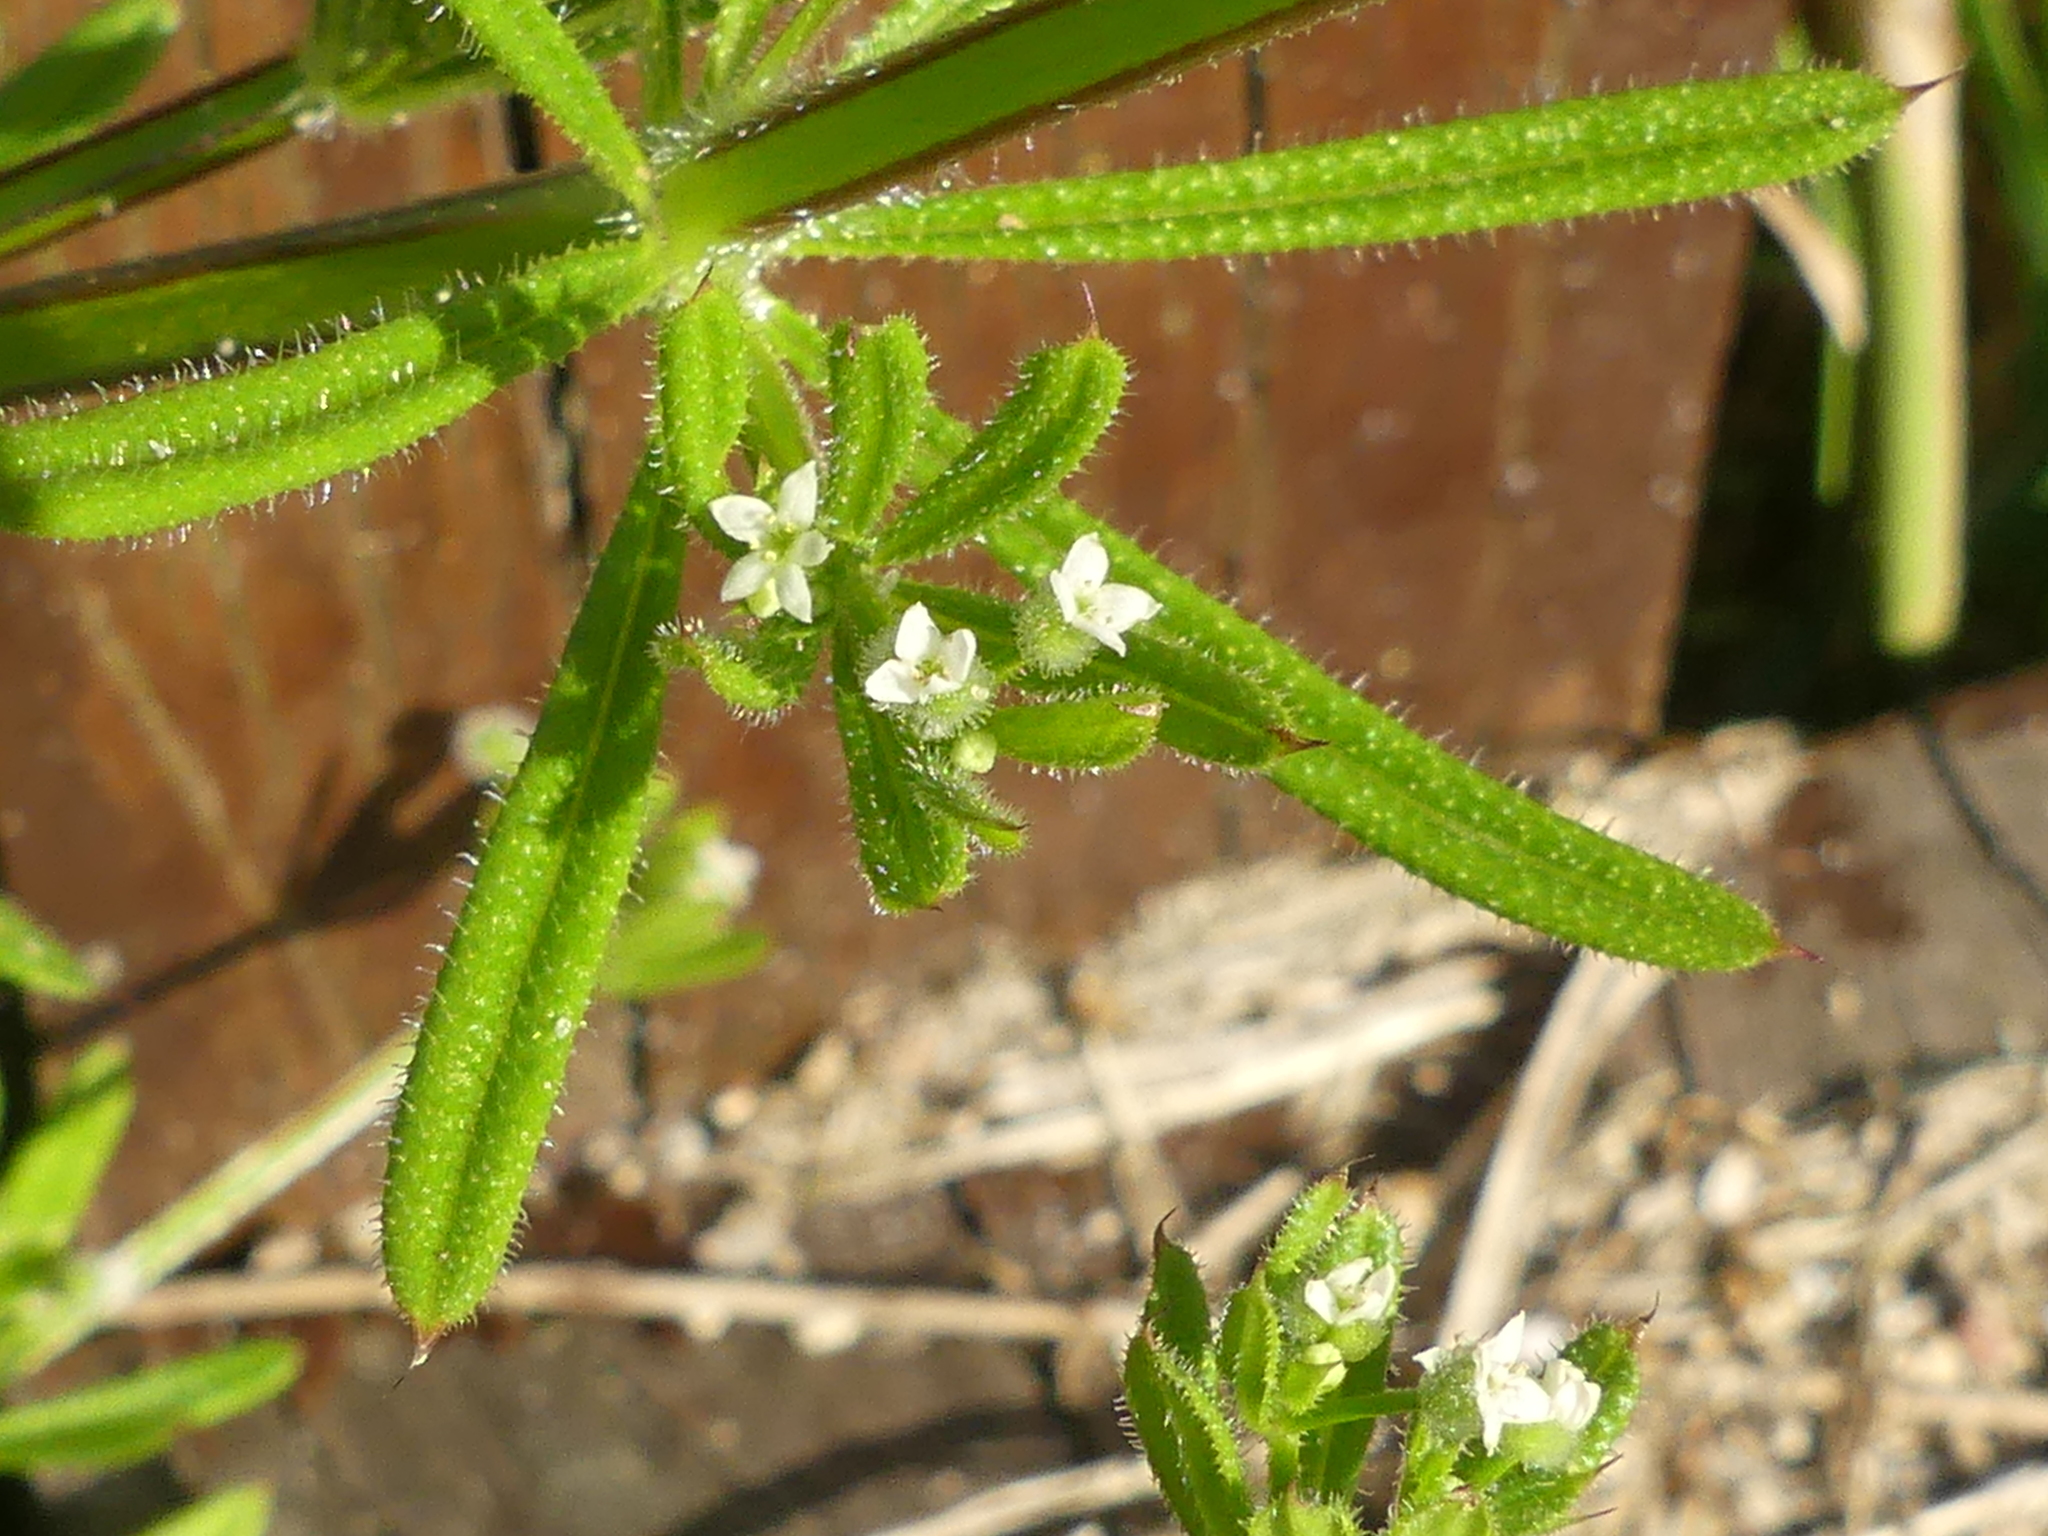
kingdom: Plantae
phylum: Tracheophyta
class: Magnoliopsida
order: Gentianales
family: Rubiaceae
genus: Galium
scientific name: Galium aparine
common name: Cleavers
